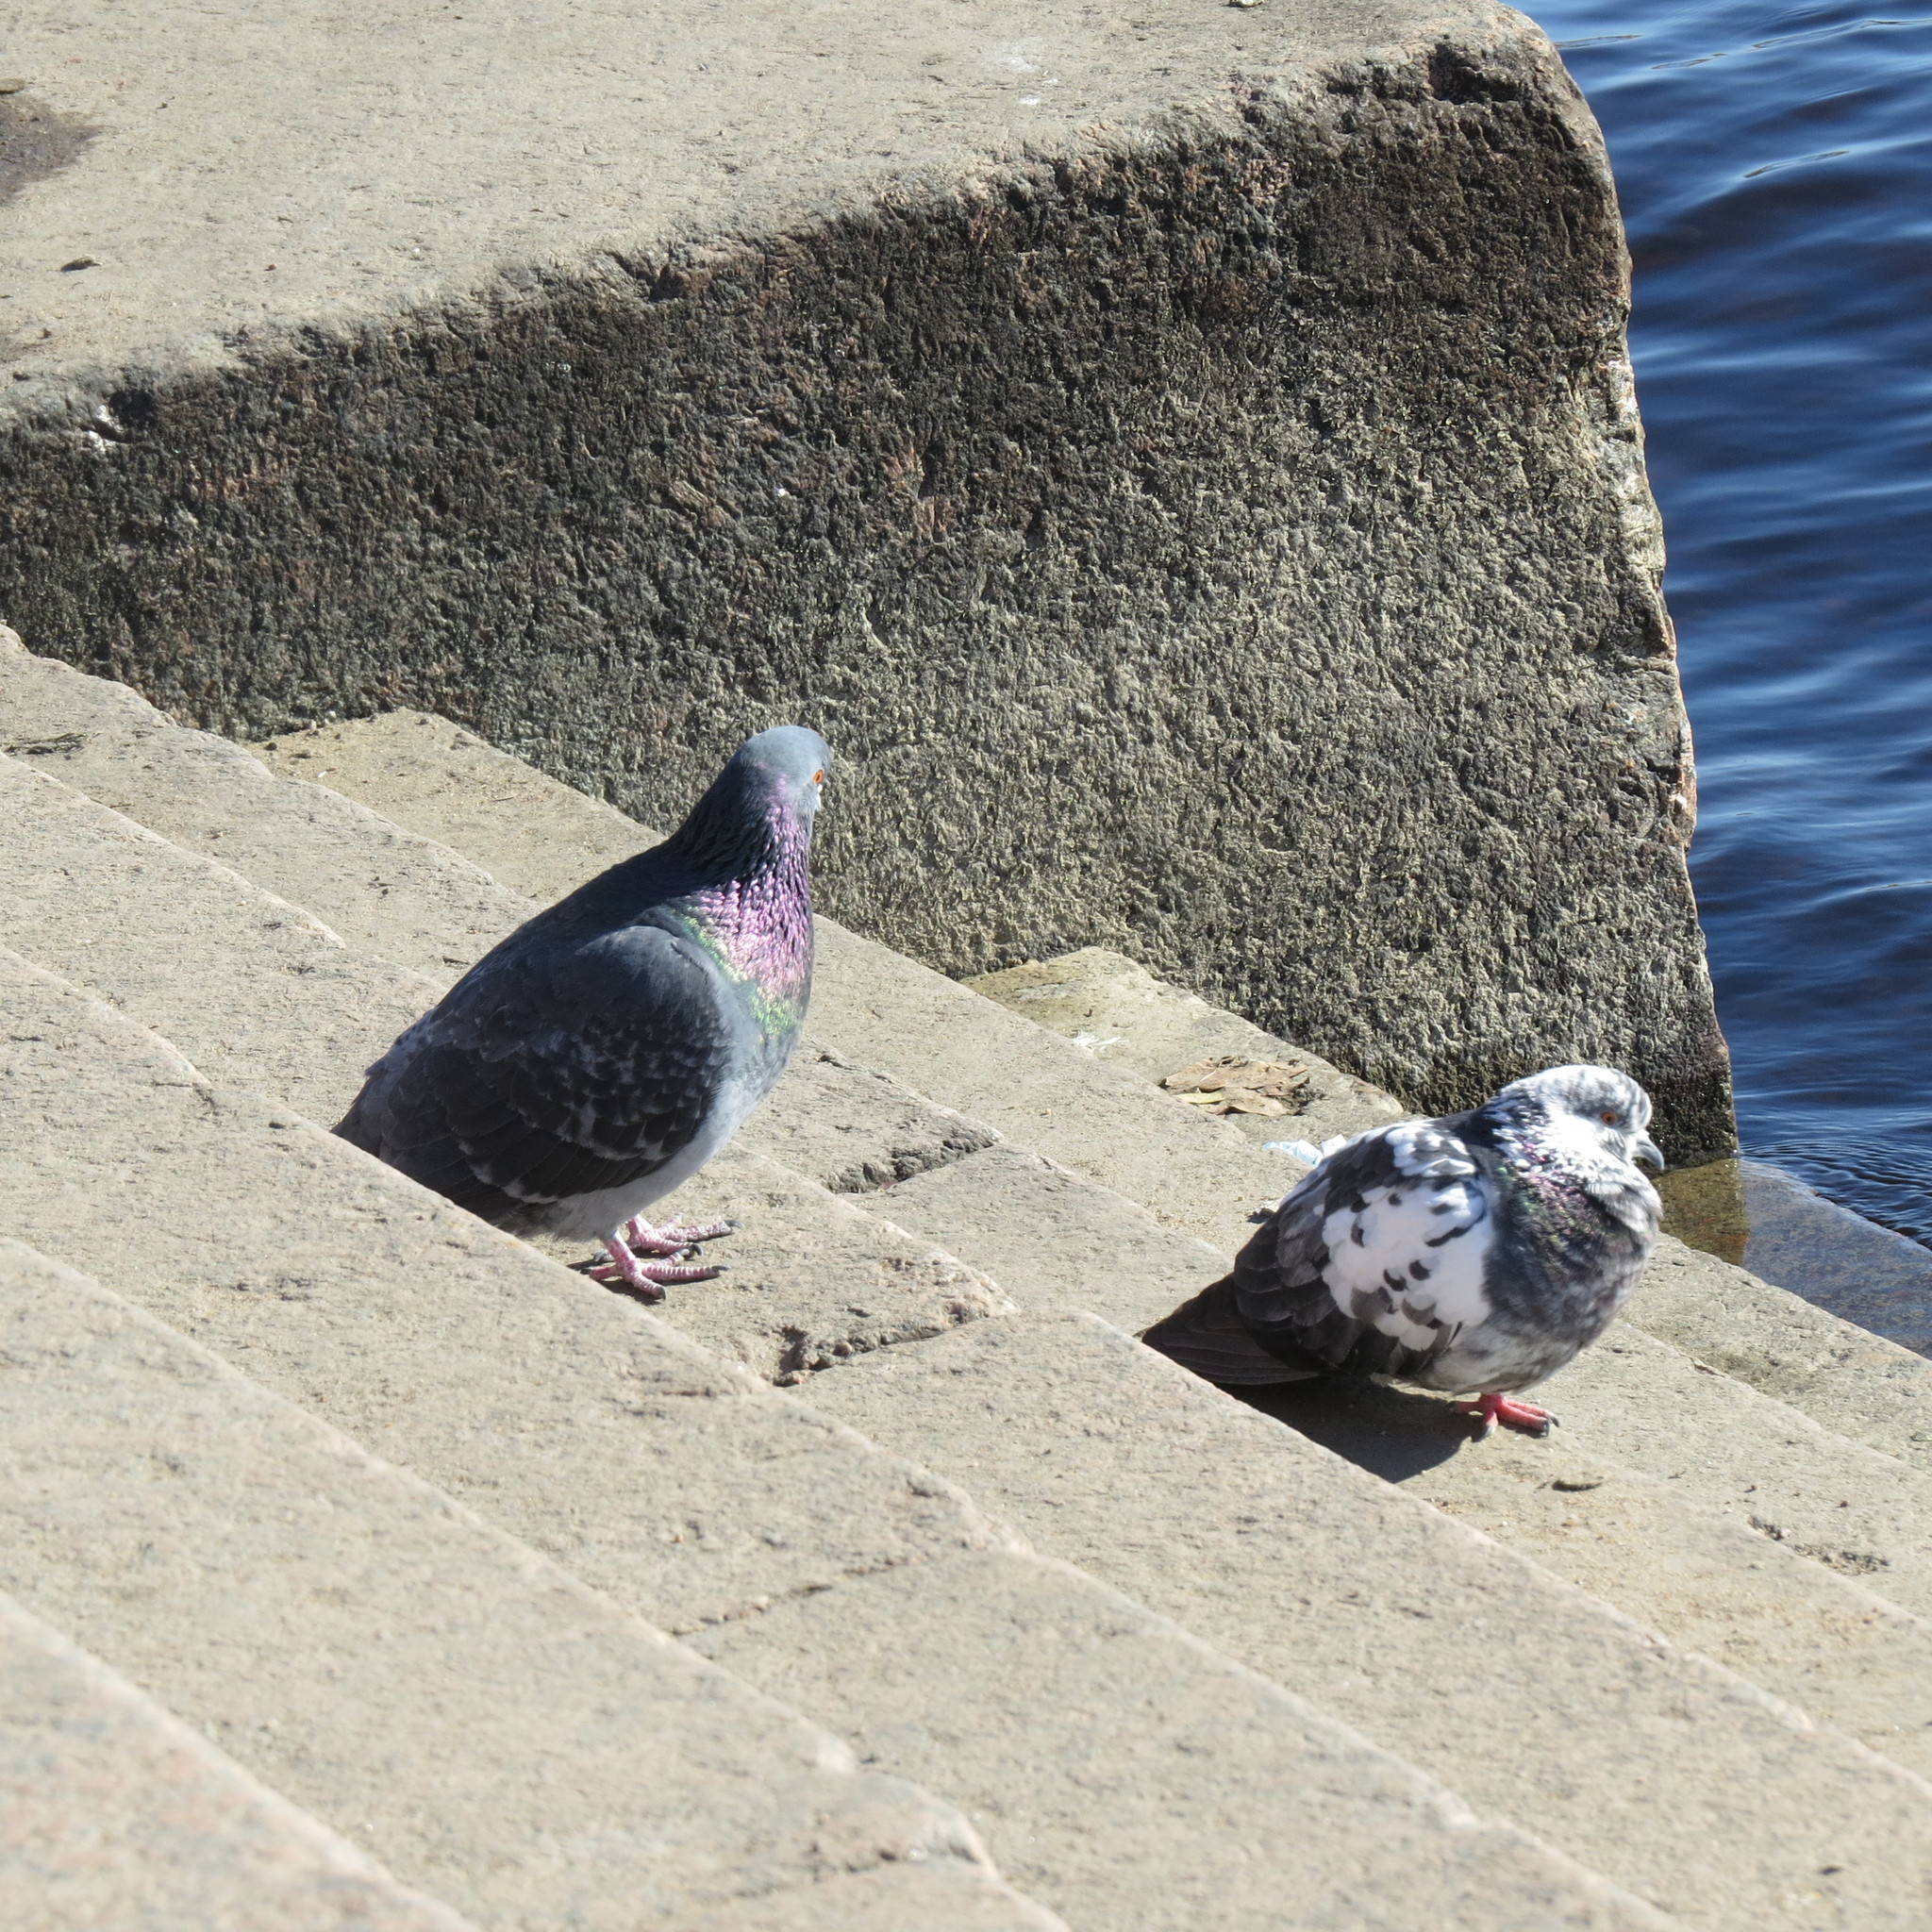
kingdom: Animalia
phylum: Chordata
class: Aves
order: Columbiformes
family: Columbidae
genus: Columba
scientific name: Columba livia
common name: Rock pigeon
